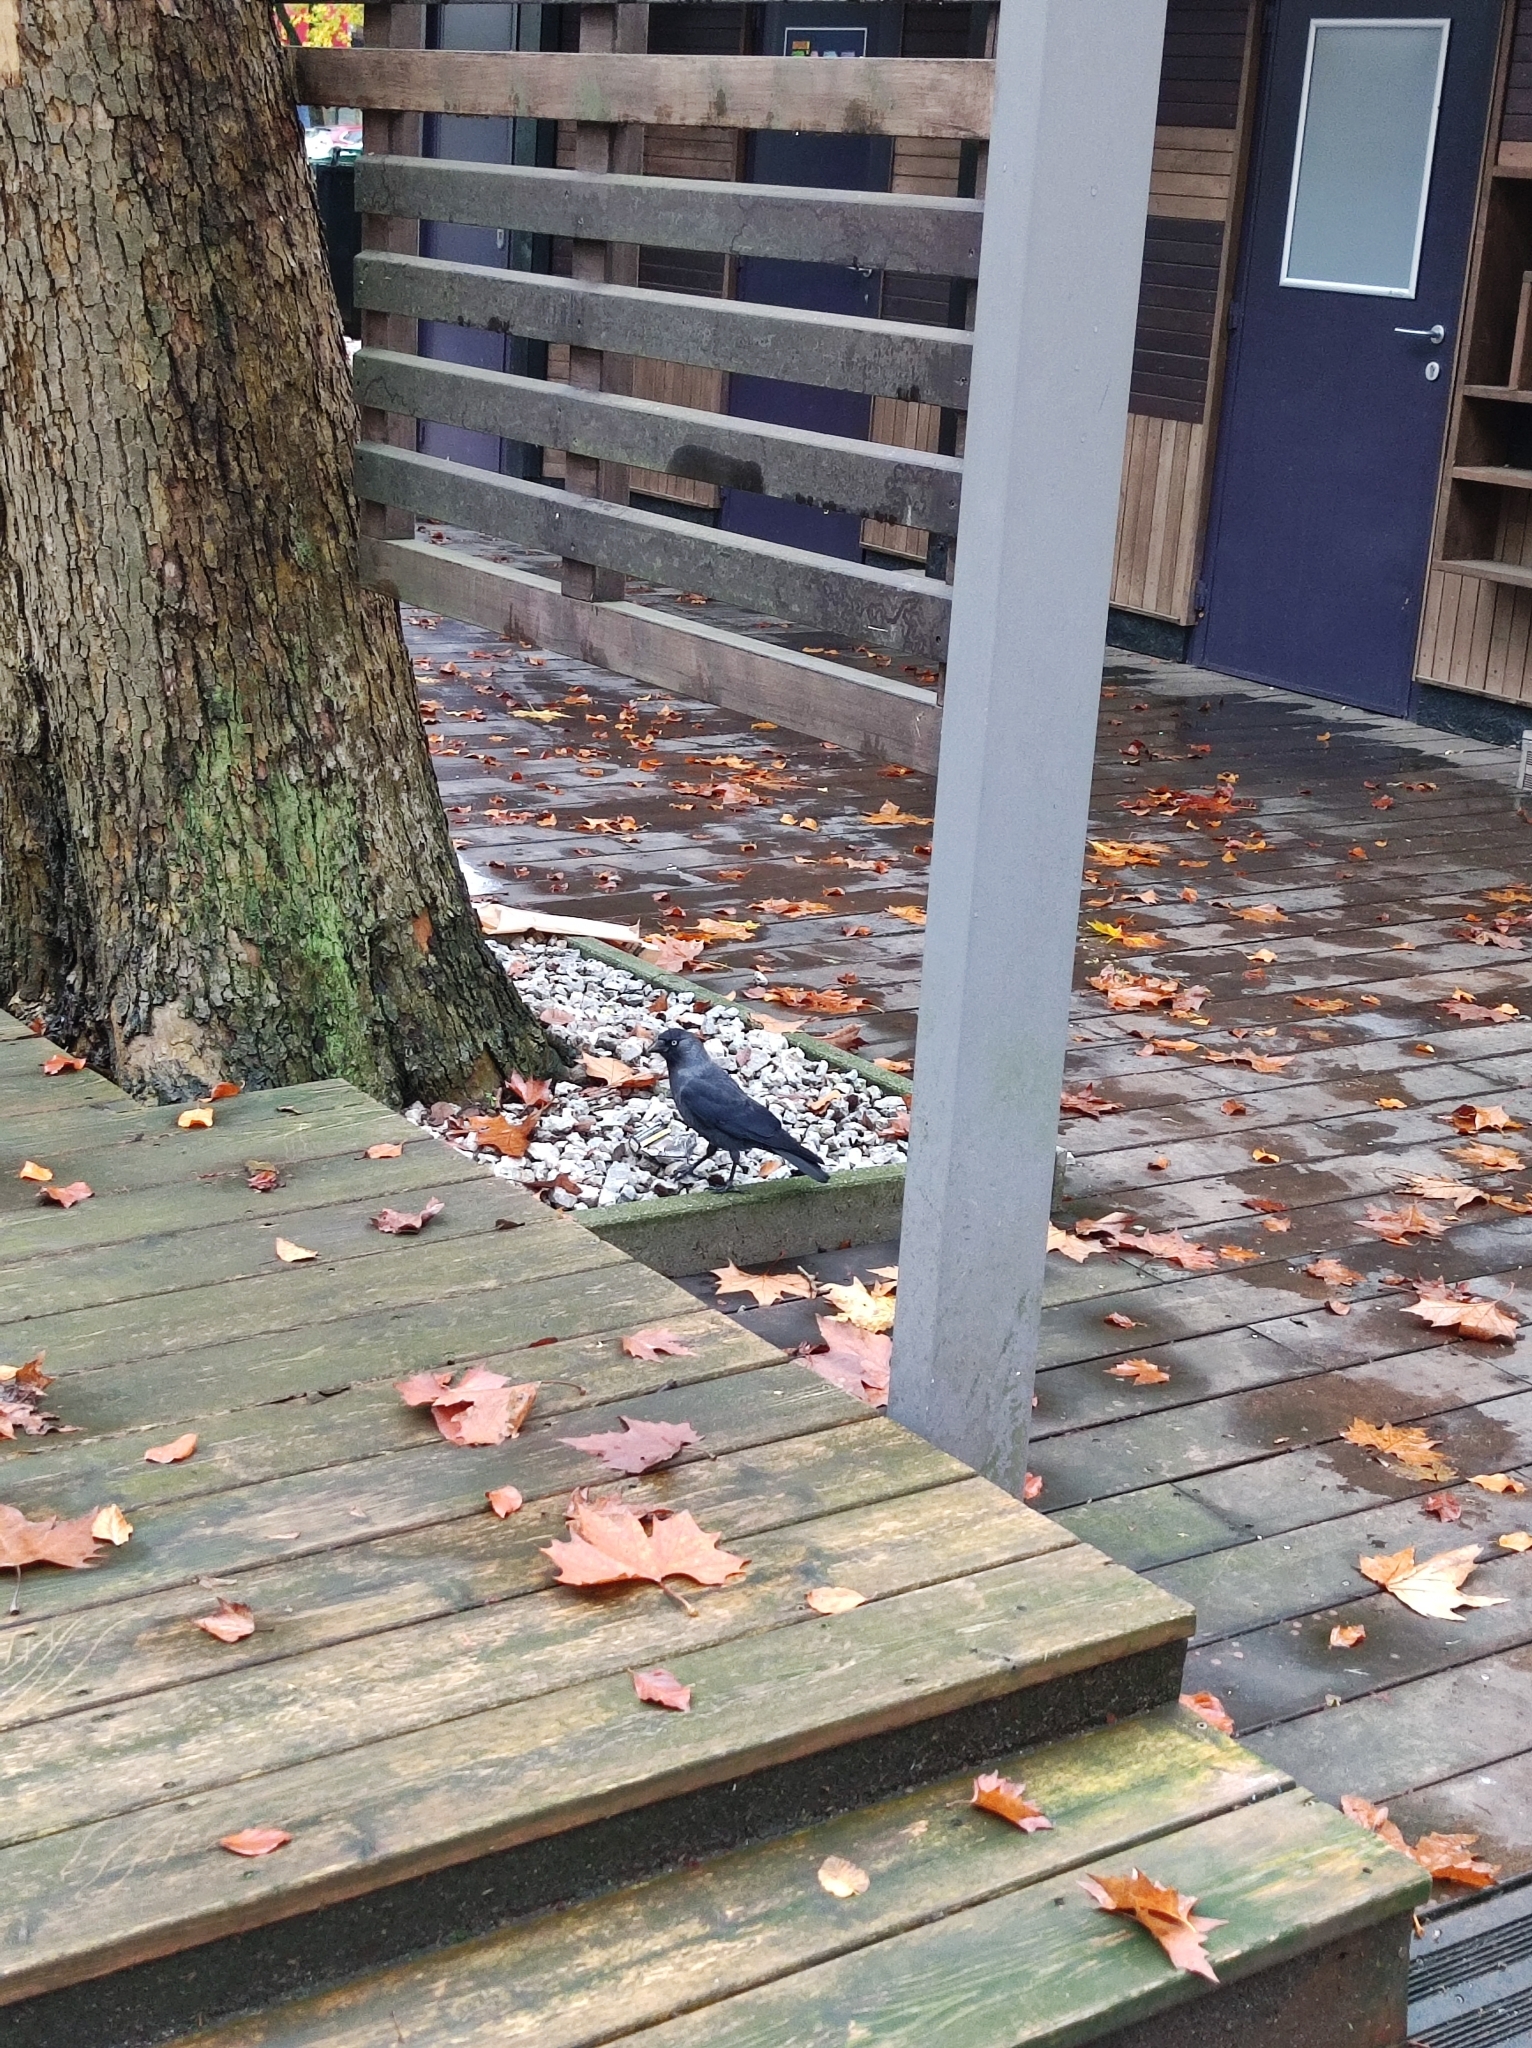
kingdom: Animalia
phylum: Chordata
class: Aves
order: Passeriformes
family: Corvidae
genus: Coloeus
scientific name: Coloeus monedula
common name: Western jackdaw
